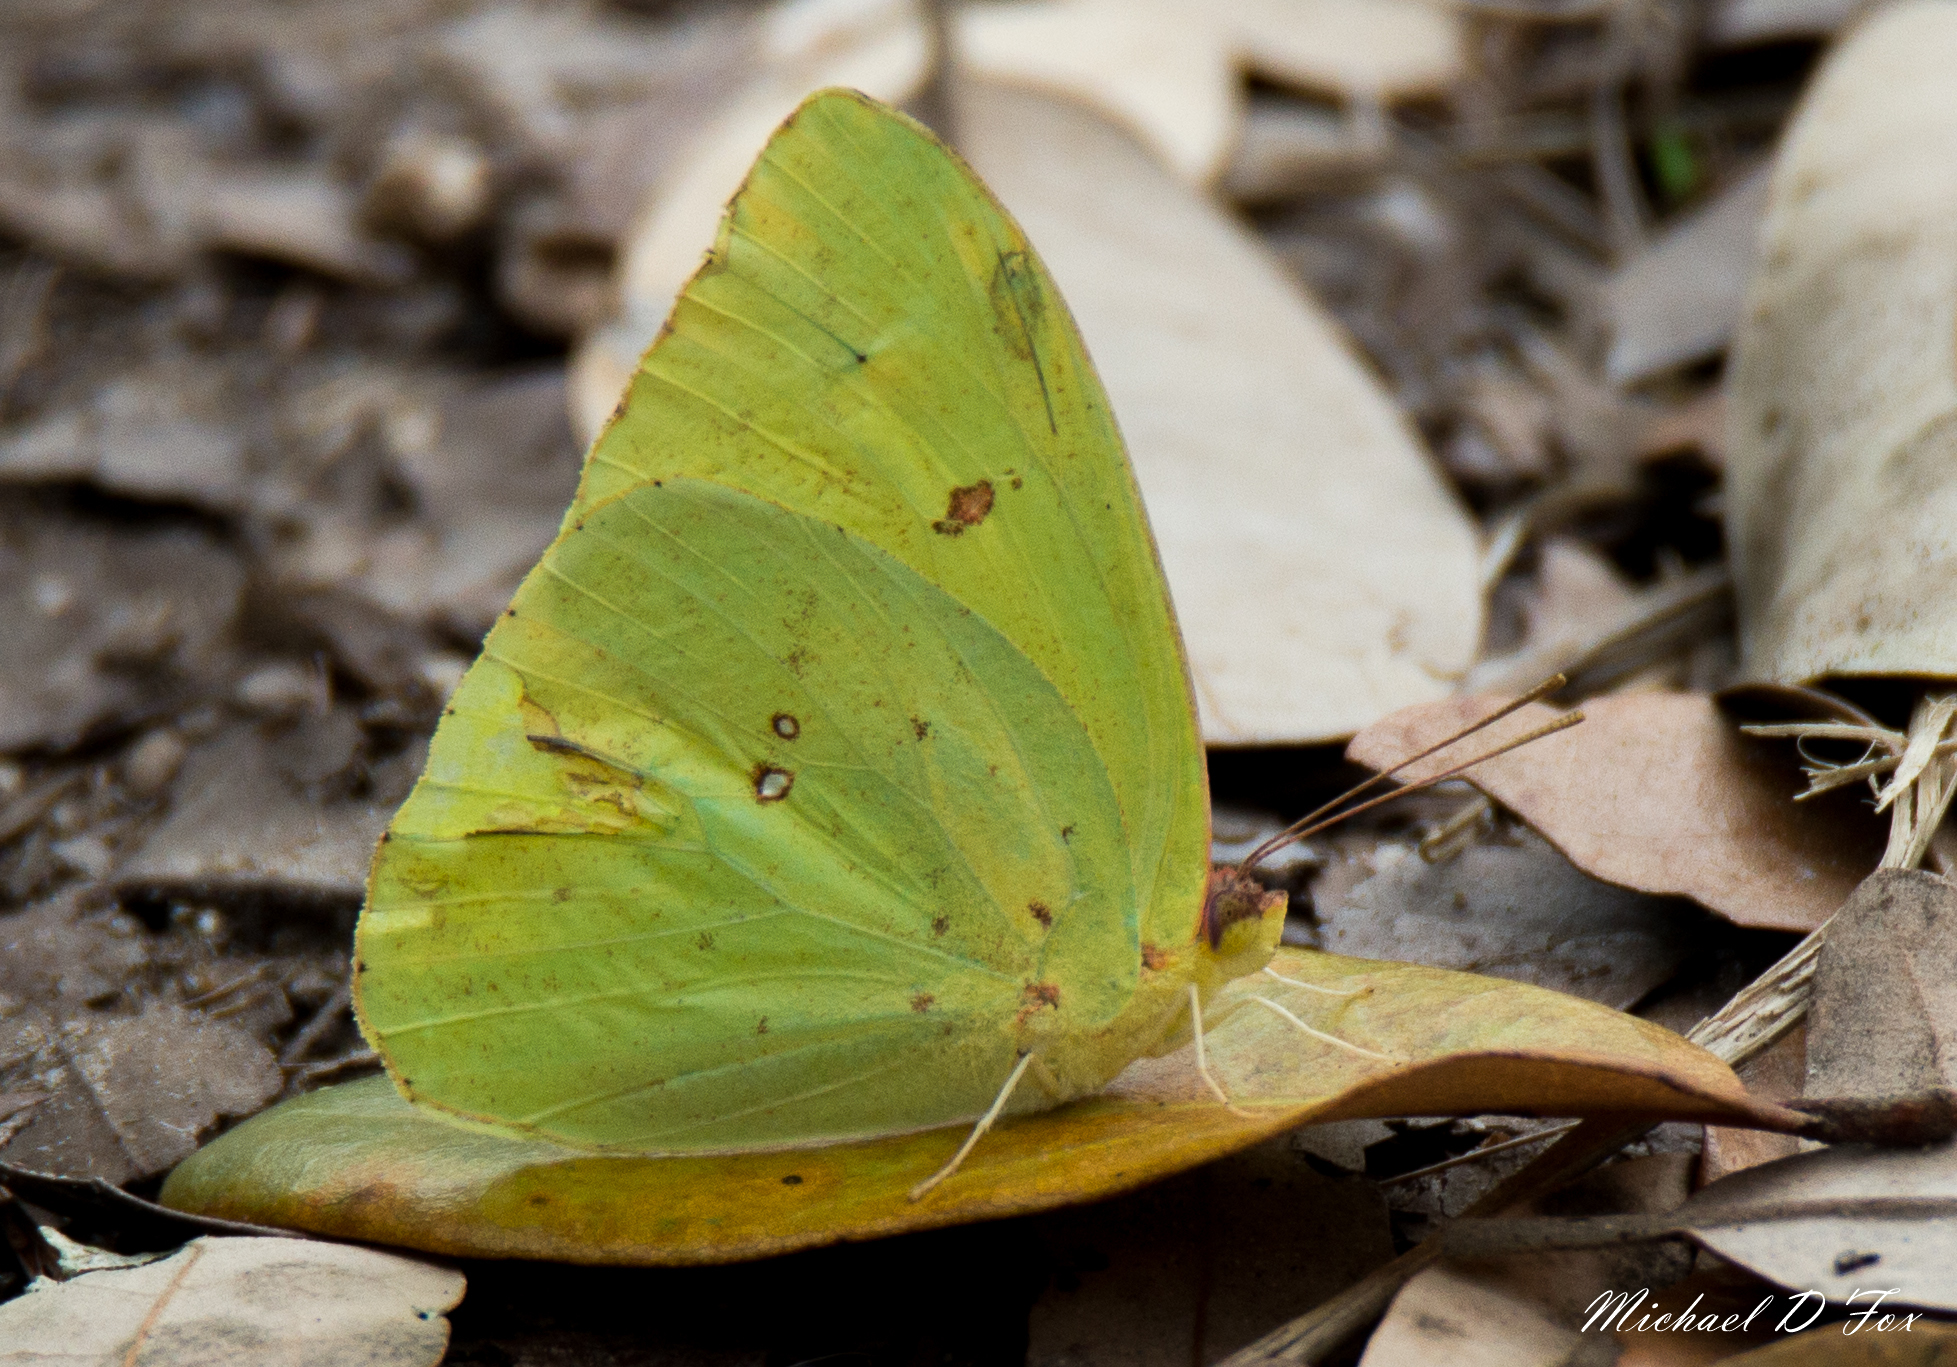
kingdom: Animalia
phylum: Arthropoda
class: Insecta
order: Lepidoptera
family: Pieridae
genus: Phoebis
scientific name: Phoebis sennae
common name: Cloudless sulphur
